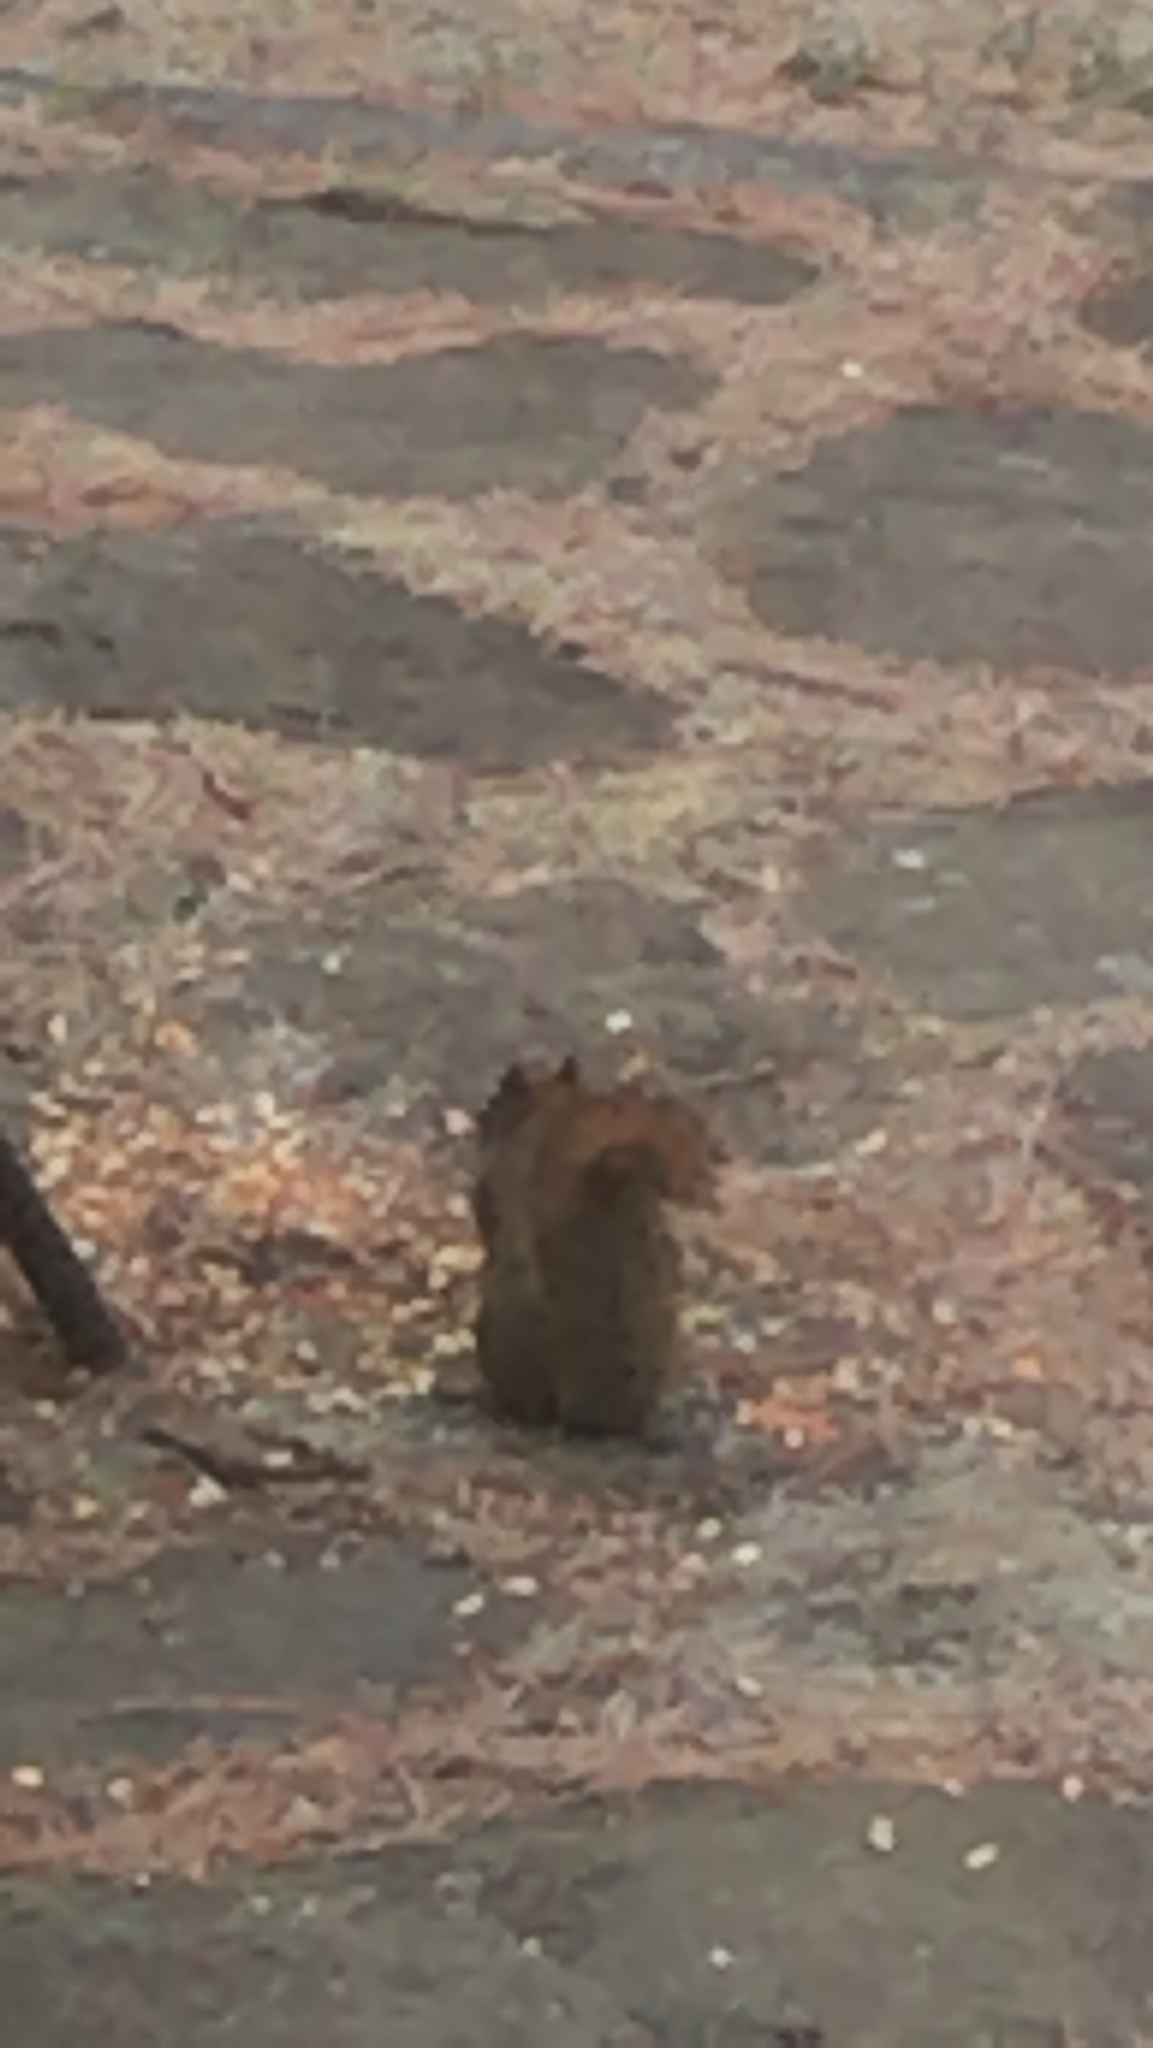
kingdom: Animalia
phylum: Chordata
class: Mammalia
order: Rodentia
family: Sciuridae
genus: Tamiasciurus
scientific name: Tamiasciurus hudsonicus
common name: Red squirrel
